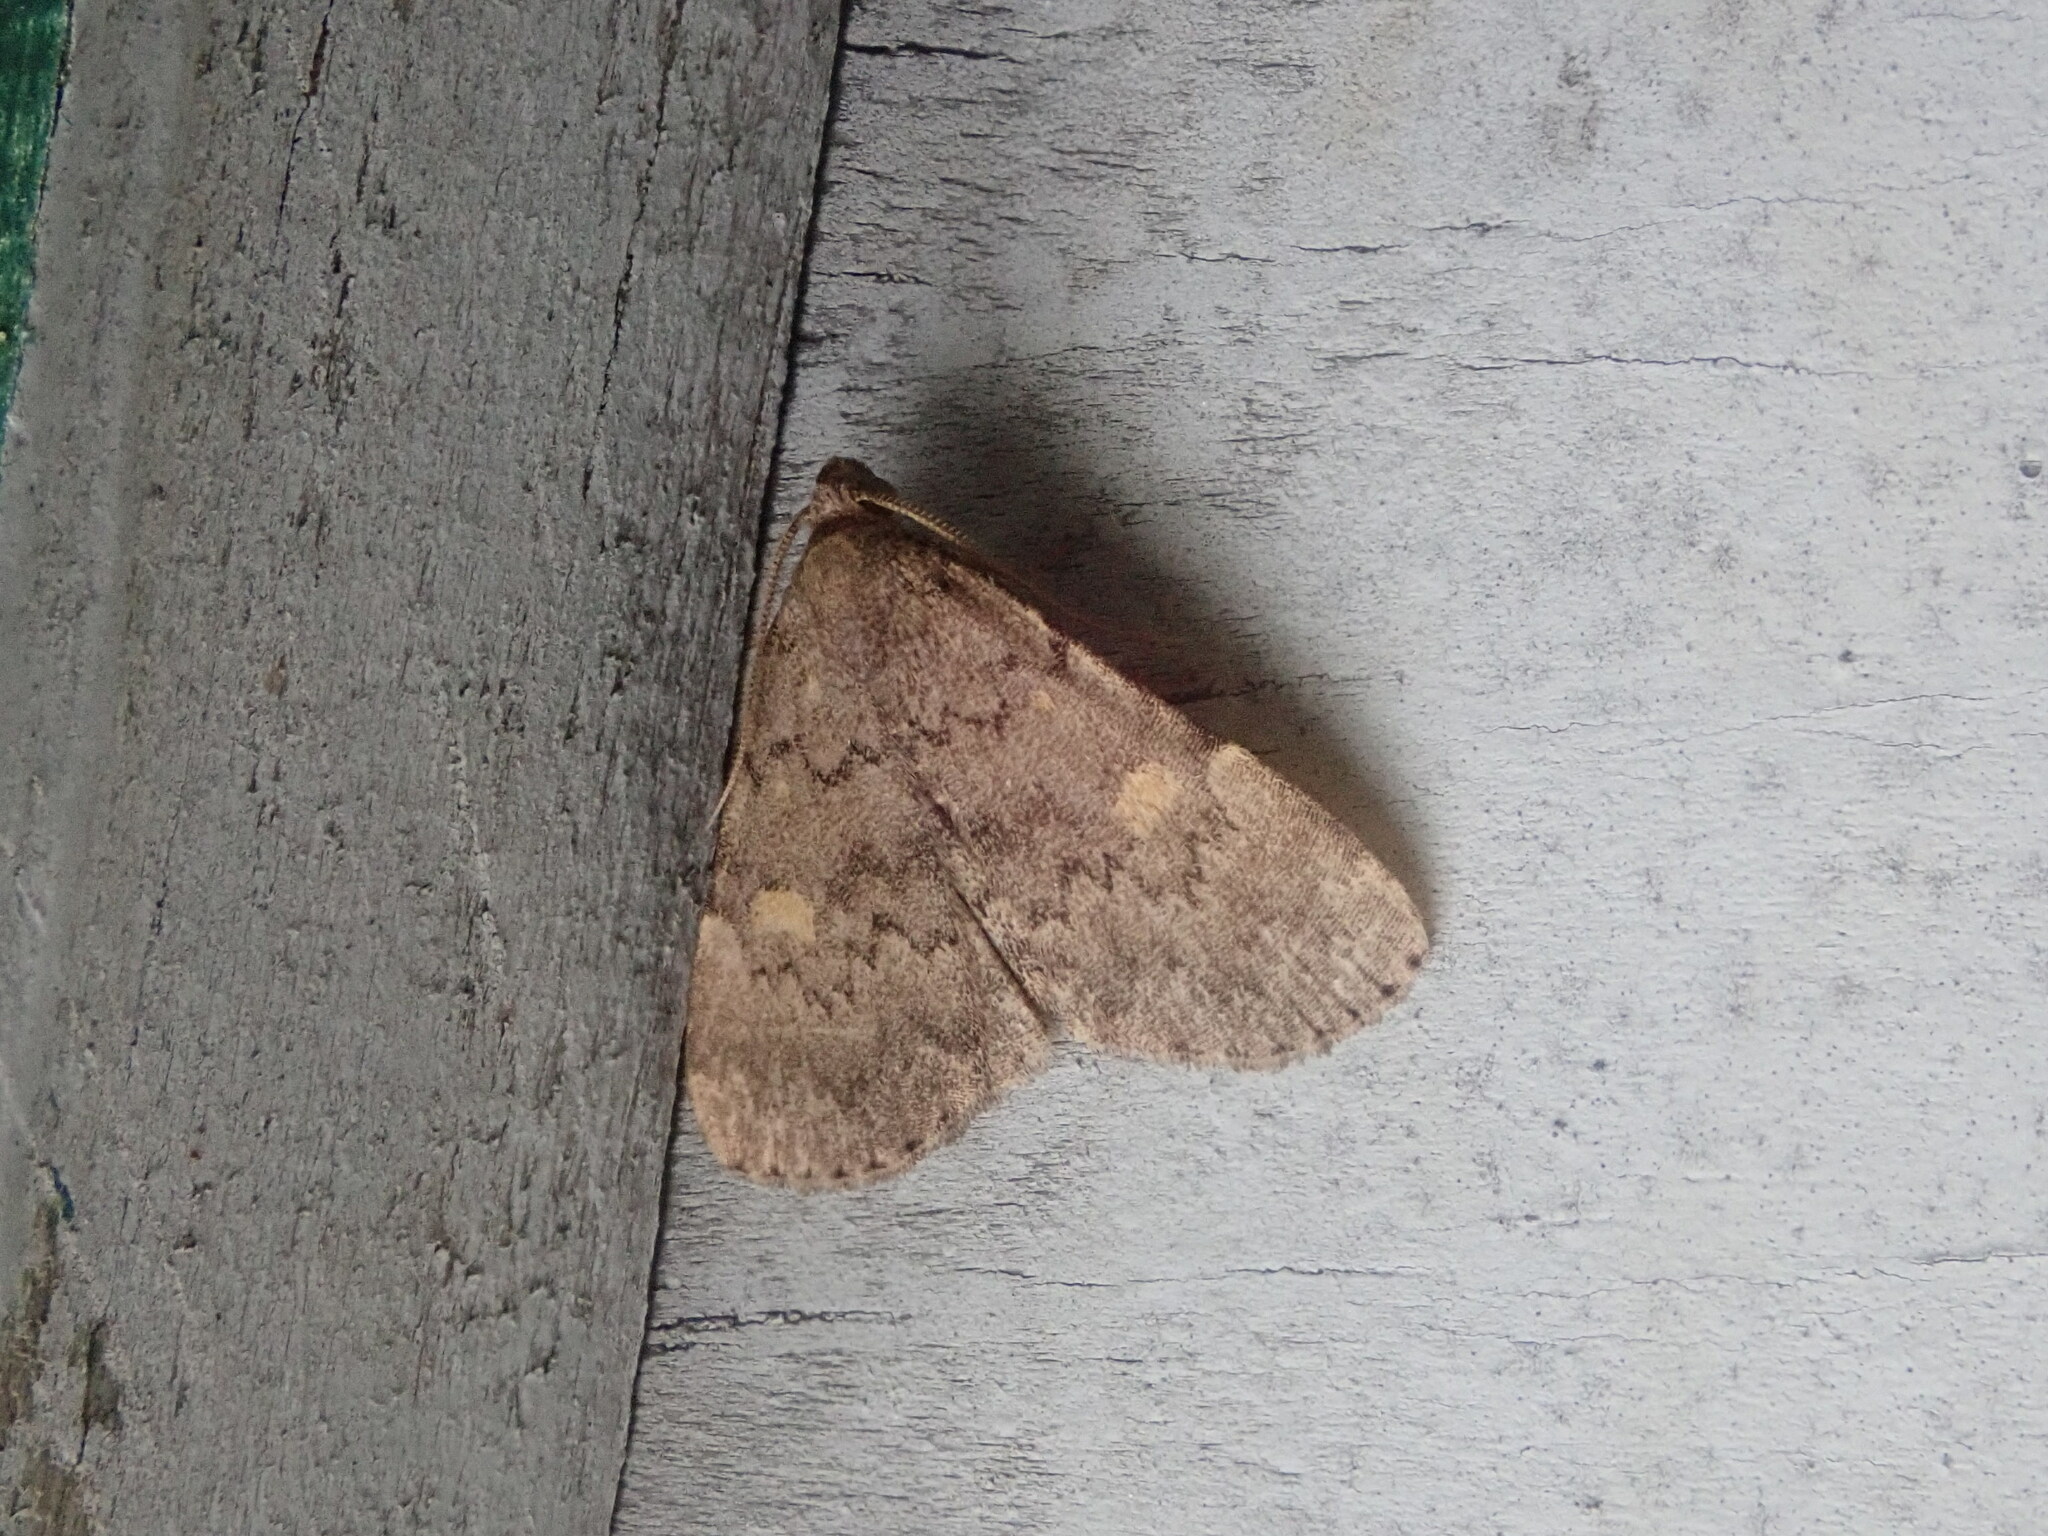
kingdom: Animalia
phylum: Arthropoda
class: Insecta
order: Lepidoptera
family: Erebidae
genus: Idia
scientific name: Idia aemula
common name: Common idia moth
